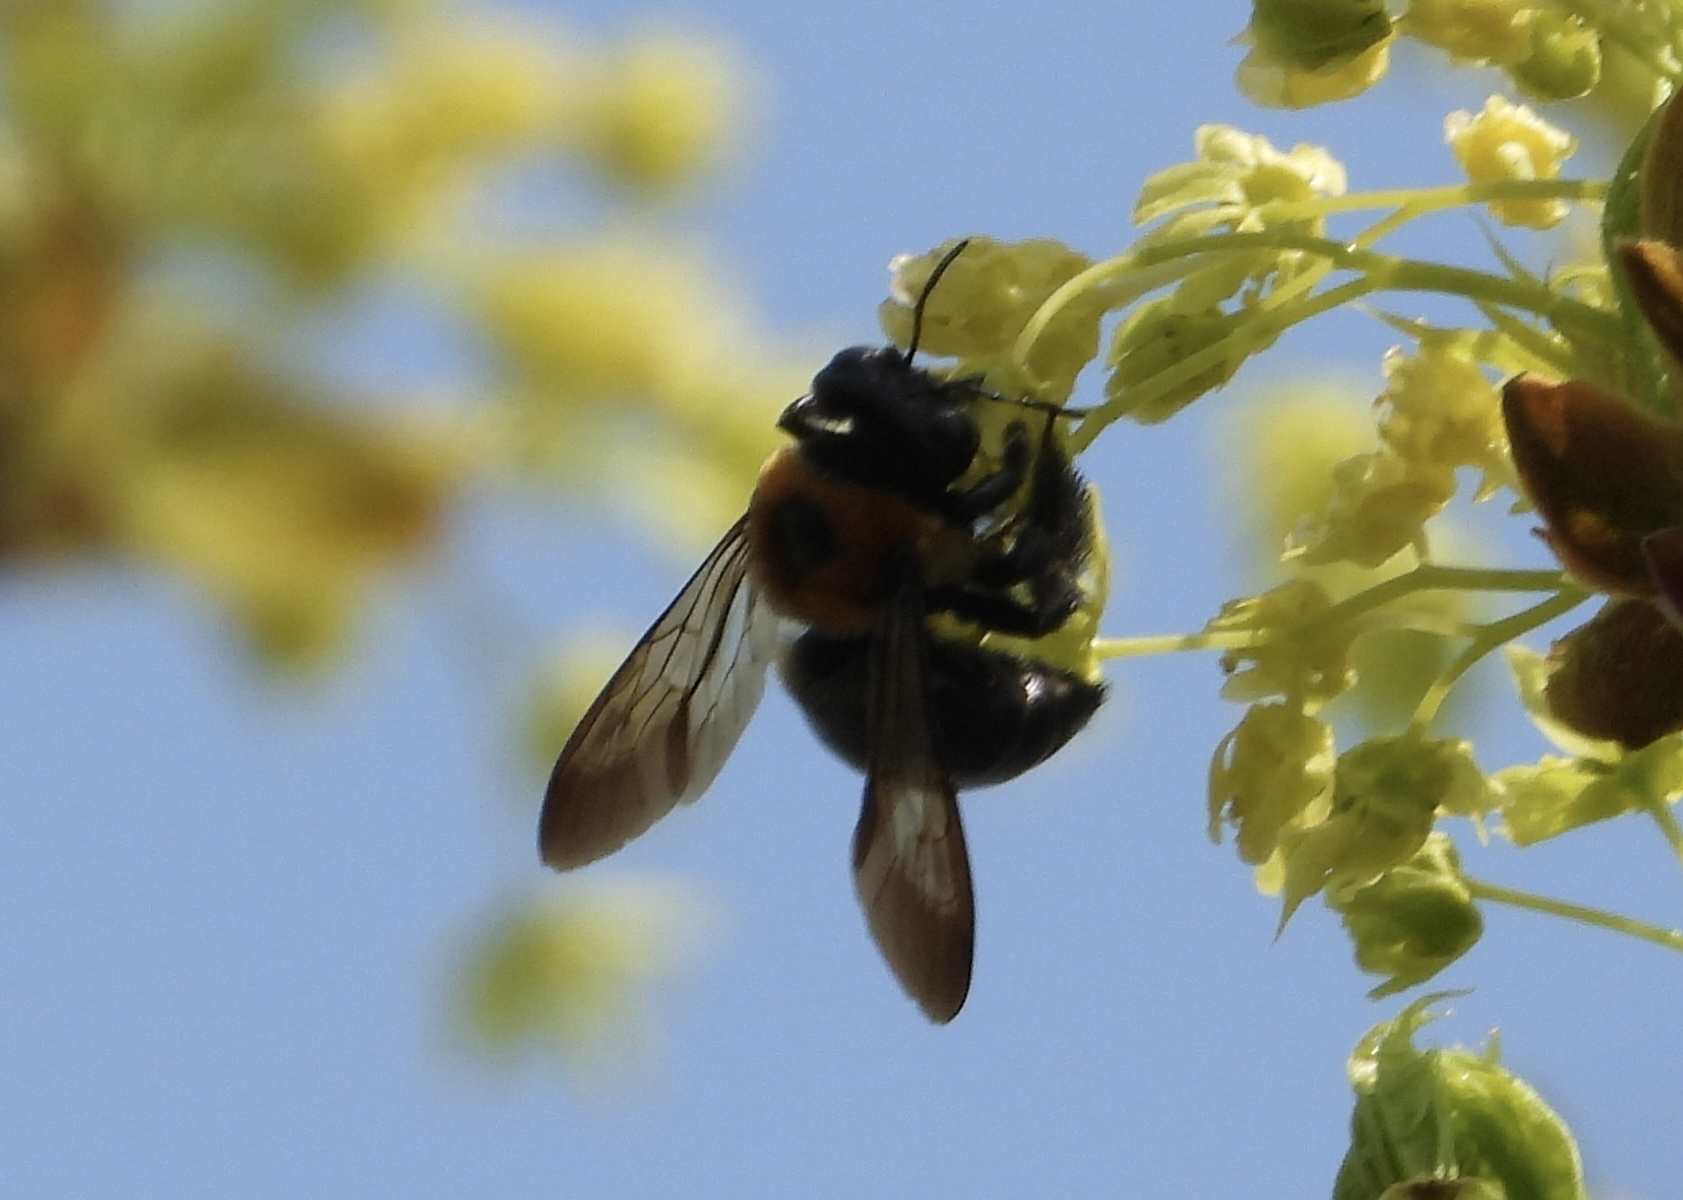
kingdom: Animalia
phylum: Arthropoda
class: Insecta
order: Hymenoptera
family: Apidae
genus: Xylocopa
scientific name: Xylocopa virginica
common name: Carpenter bee
